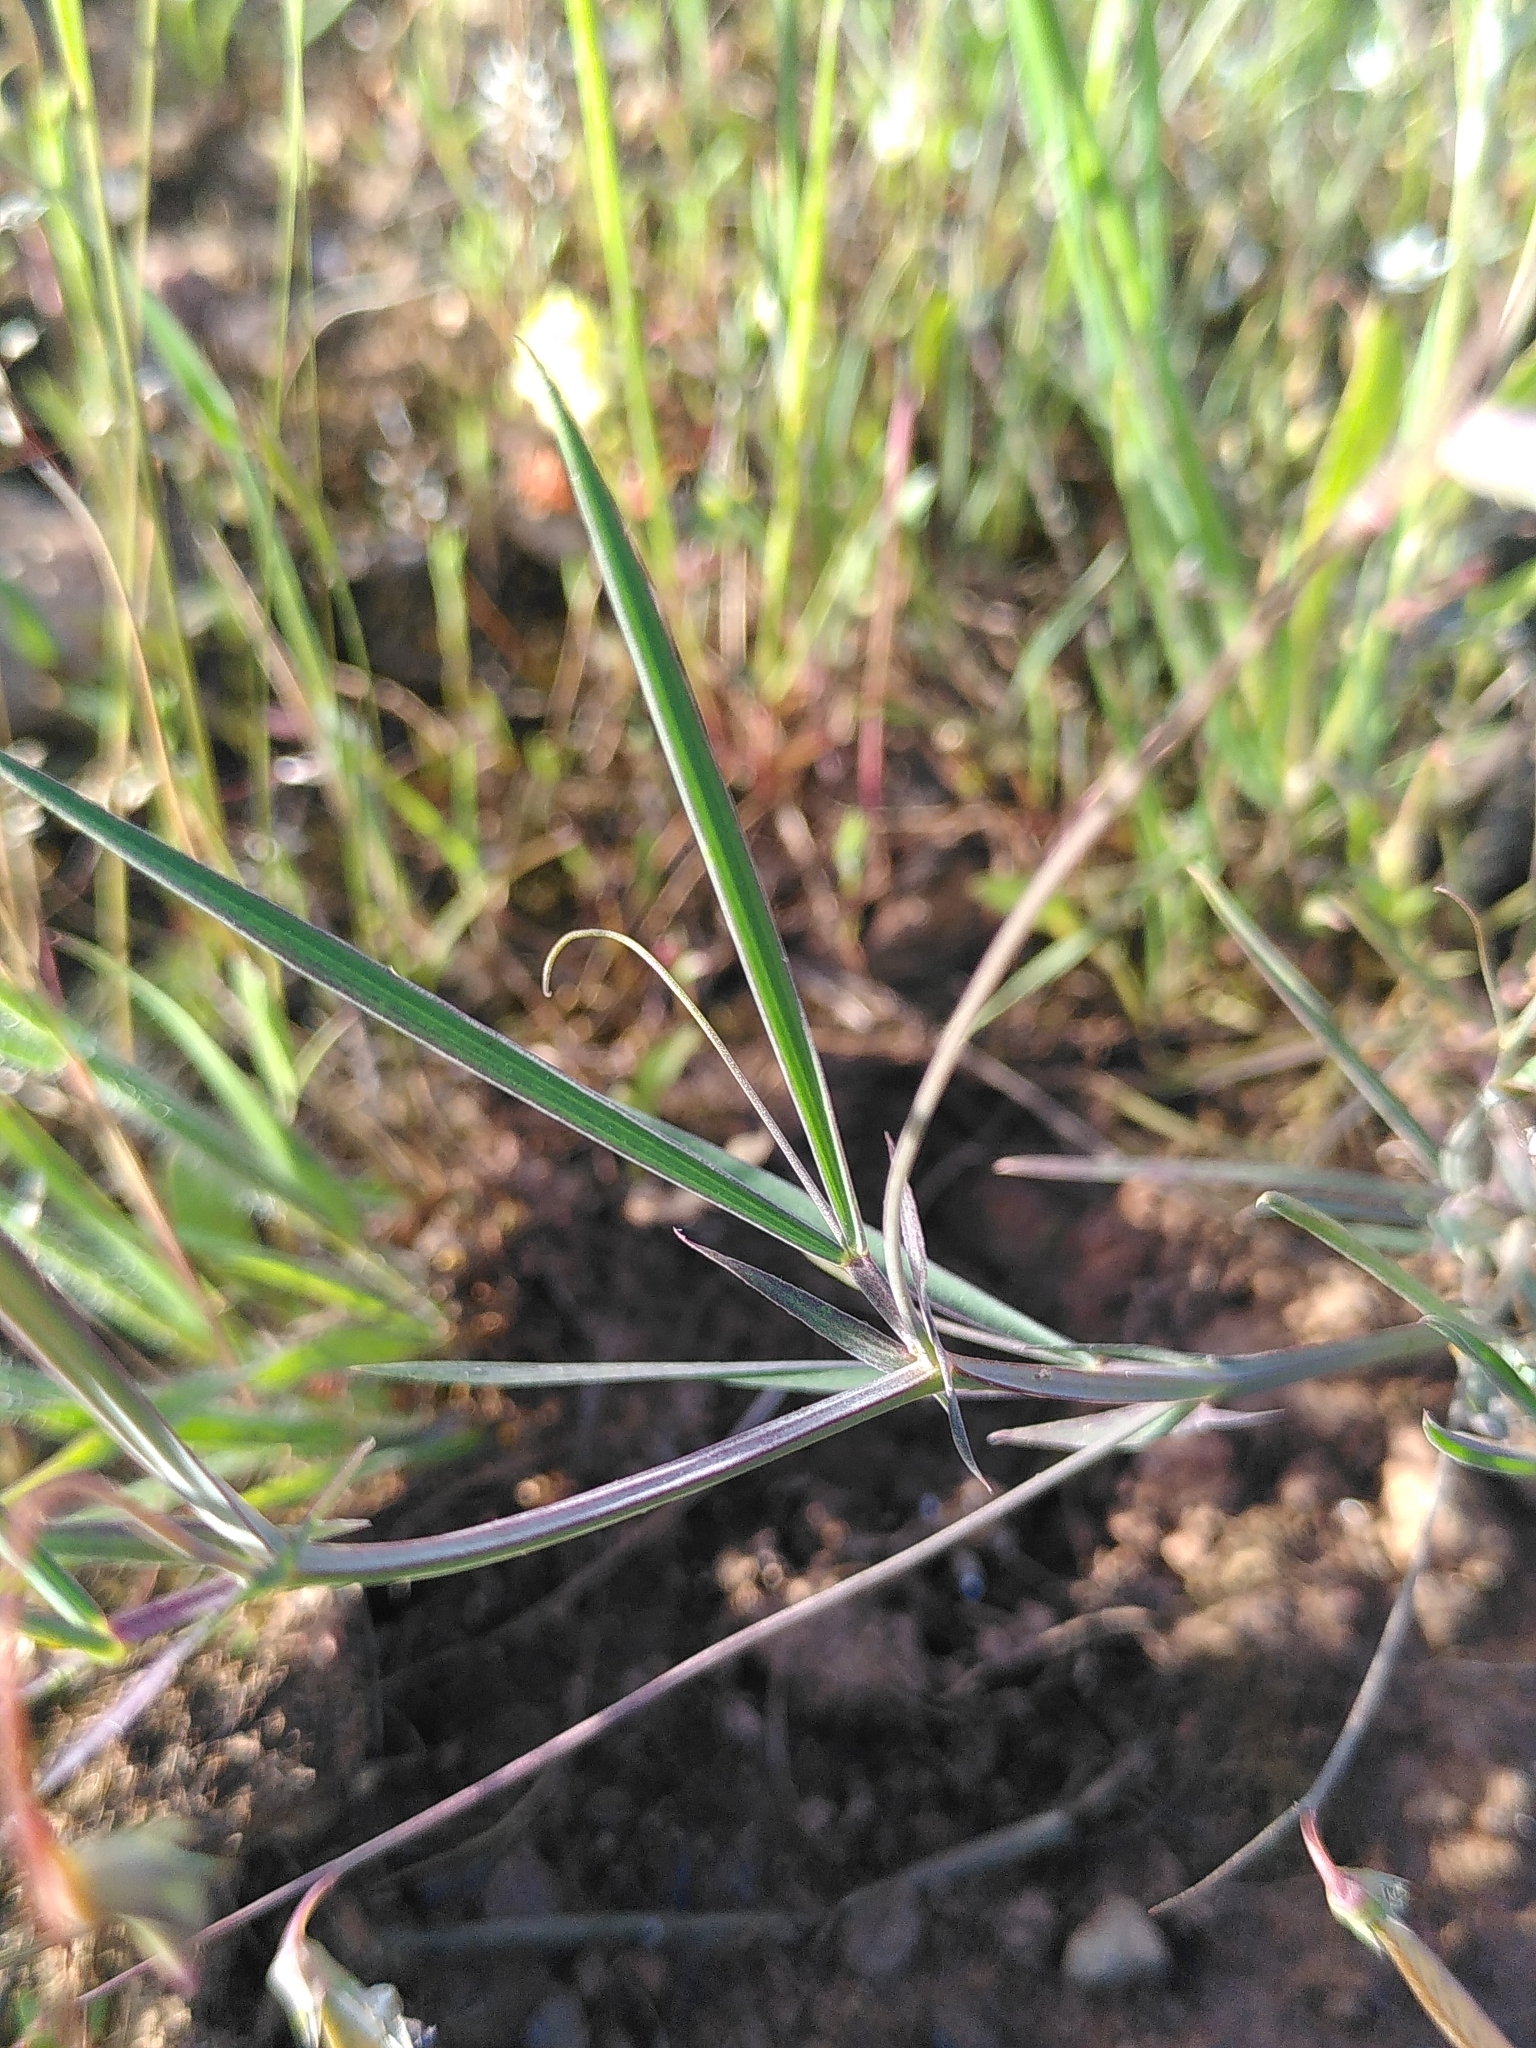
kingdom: Plantae
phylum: Tracheophyta
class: Magnoliopsida
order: Fabales
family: Fabaceae
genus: Lathyrus
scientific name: Lathyrus angulatus
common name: Angular pea
